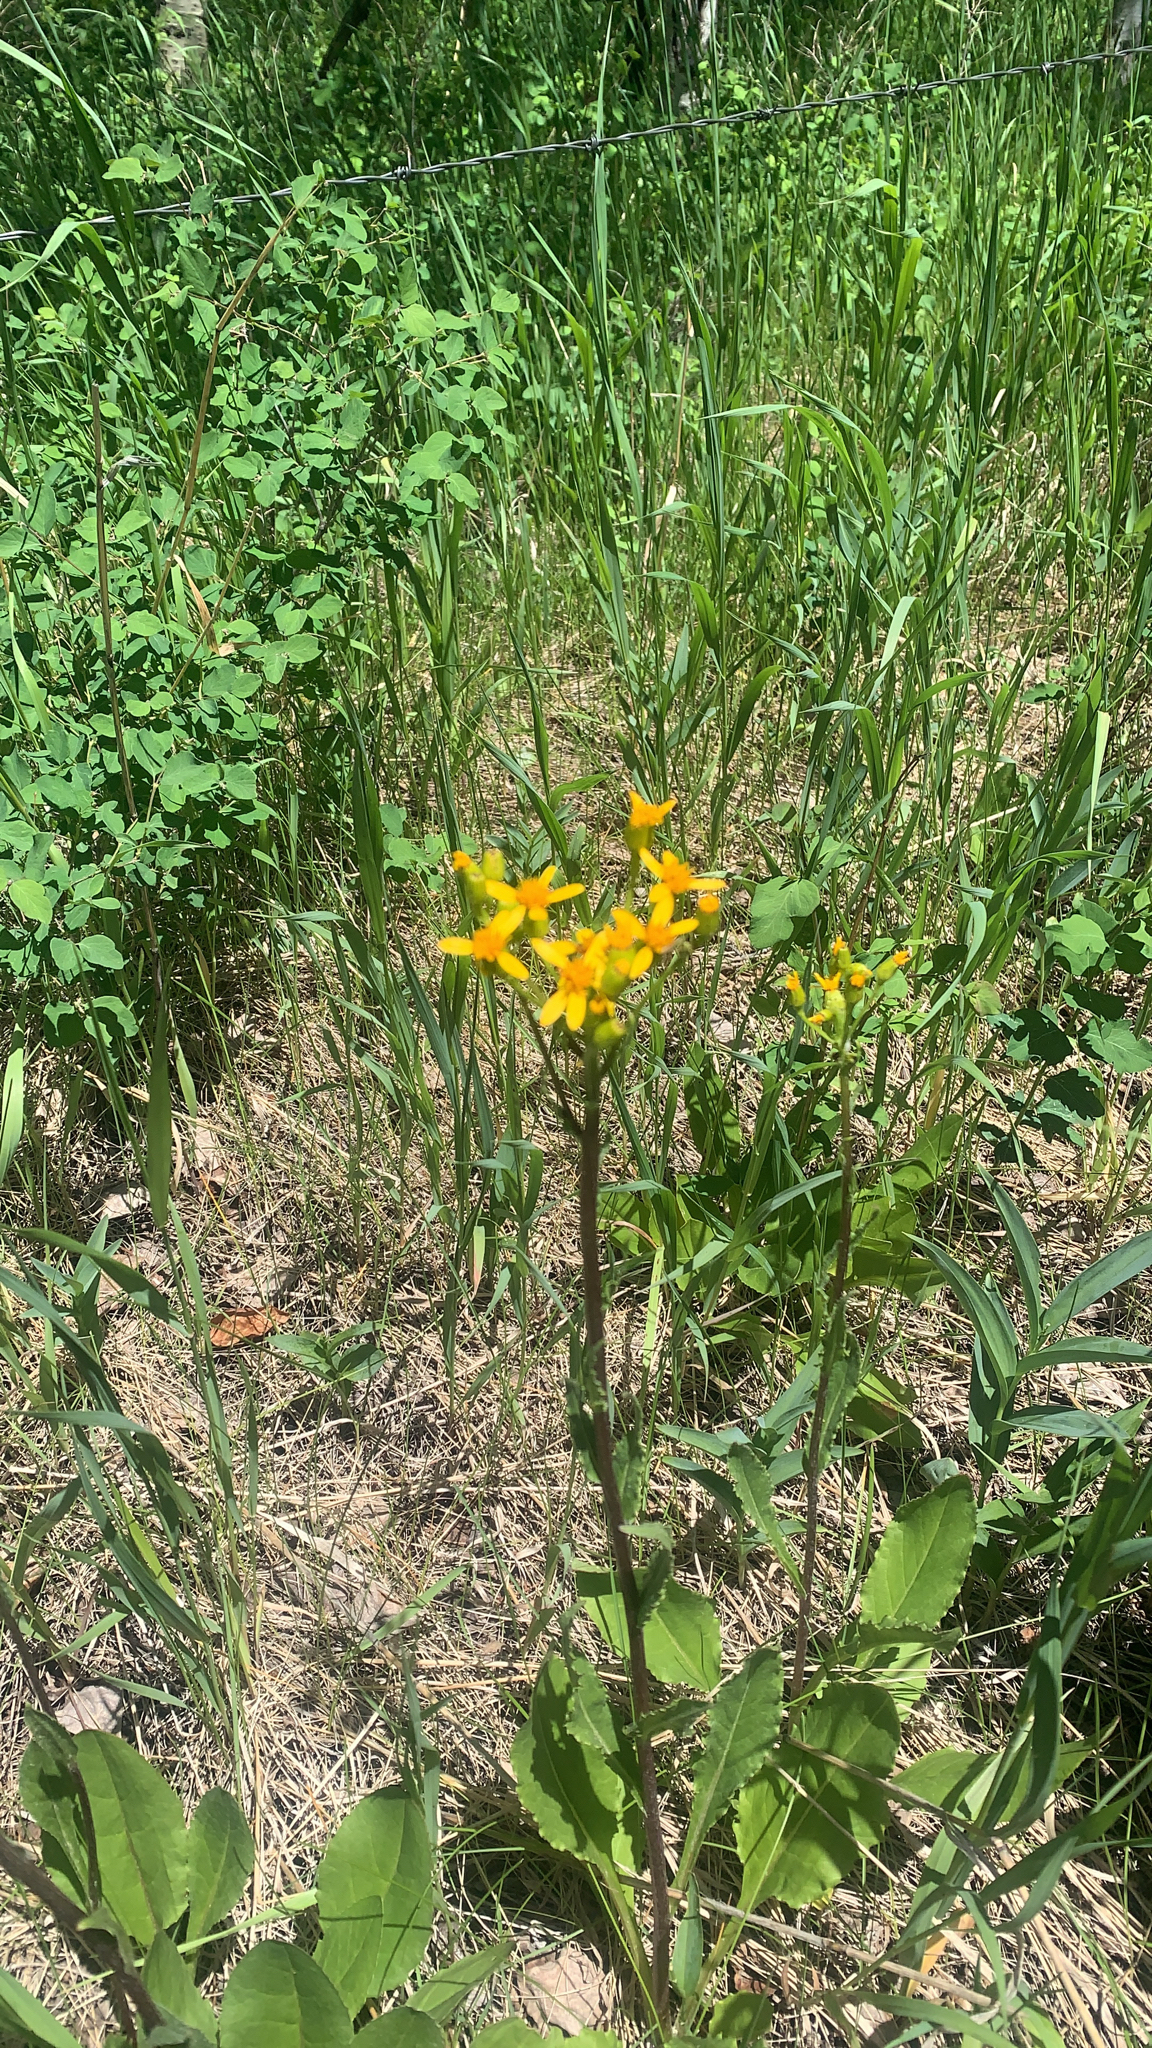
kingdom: Plantae
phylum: Tracheophyta
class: Magnoliopsida
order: Asterales
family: Asteraceae
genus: Senecio
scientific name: Senecio integerrimus
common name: Gaugeplant
